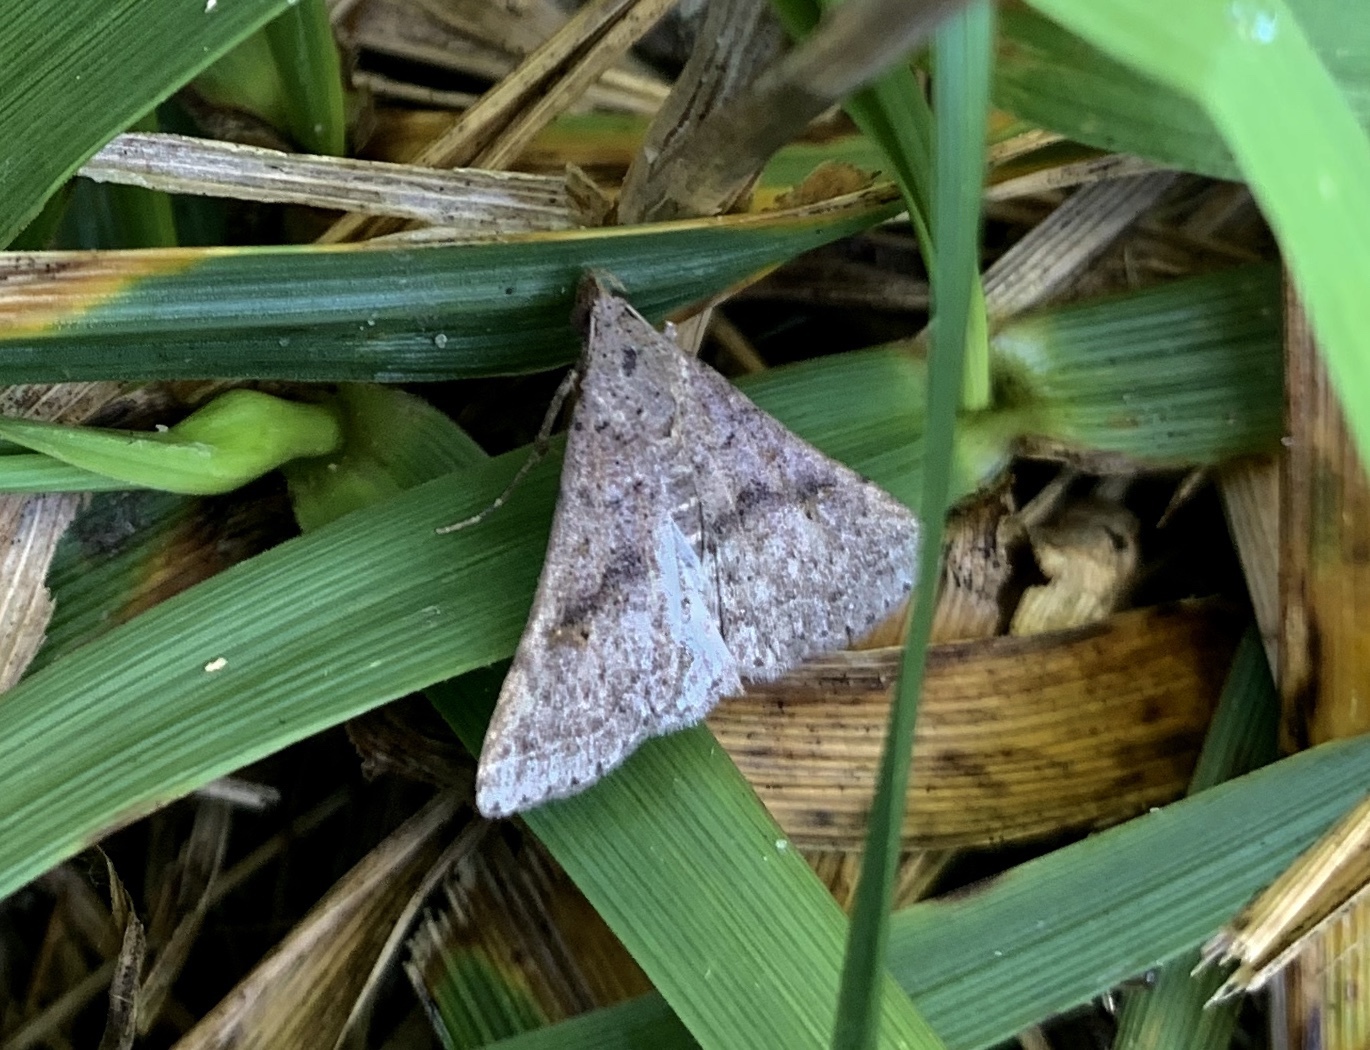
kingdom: Animalia
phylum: Arthropoda
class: Insecta
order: Lepidoptera
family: Erebidae
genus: Bleptina
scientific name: Bleptina caradrinalis
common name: Bent-winged owlet
